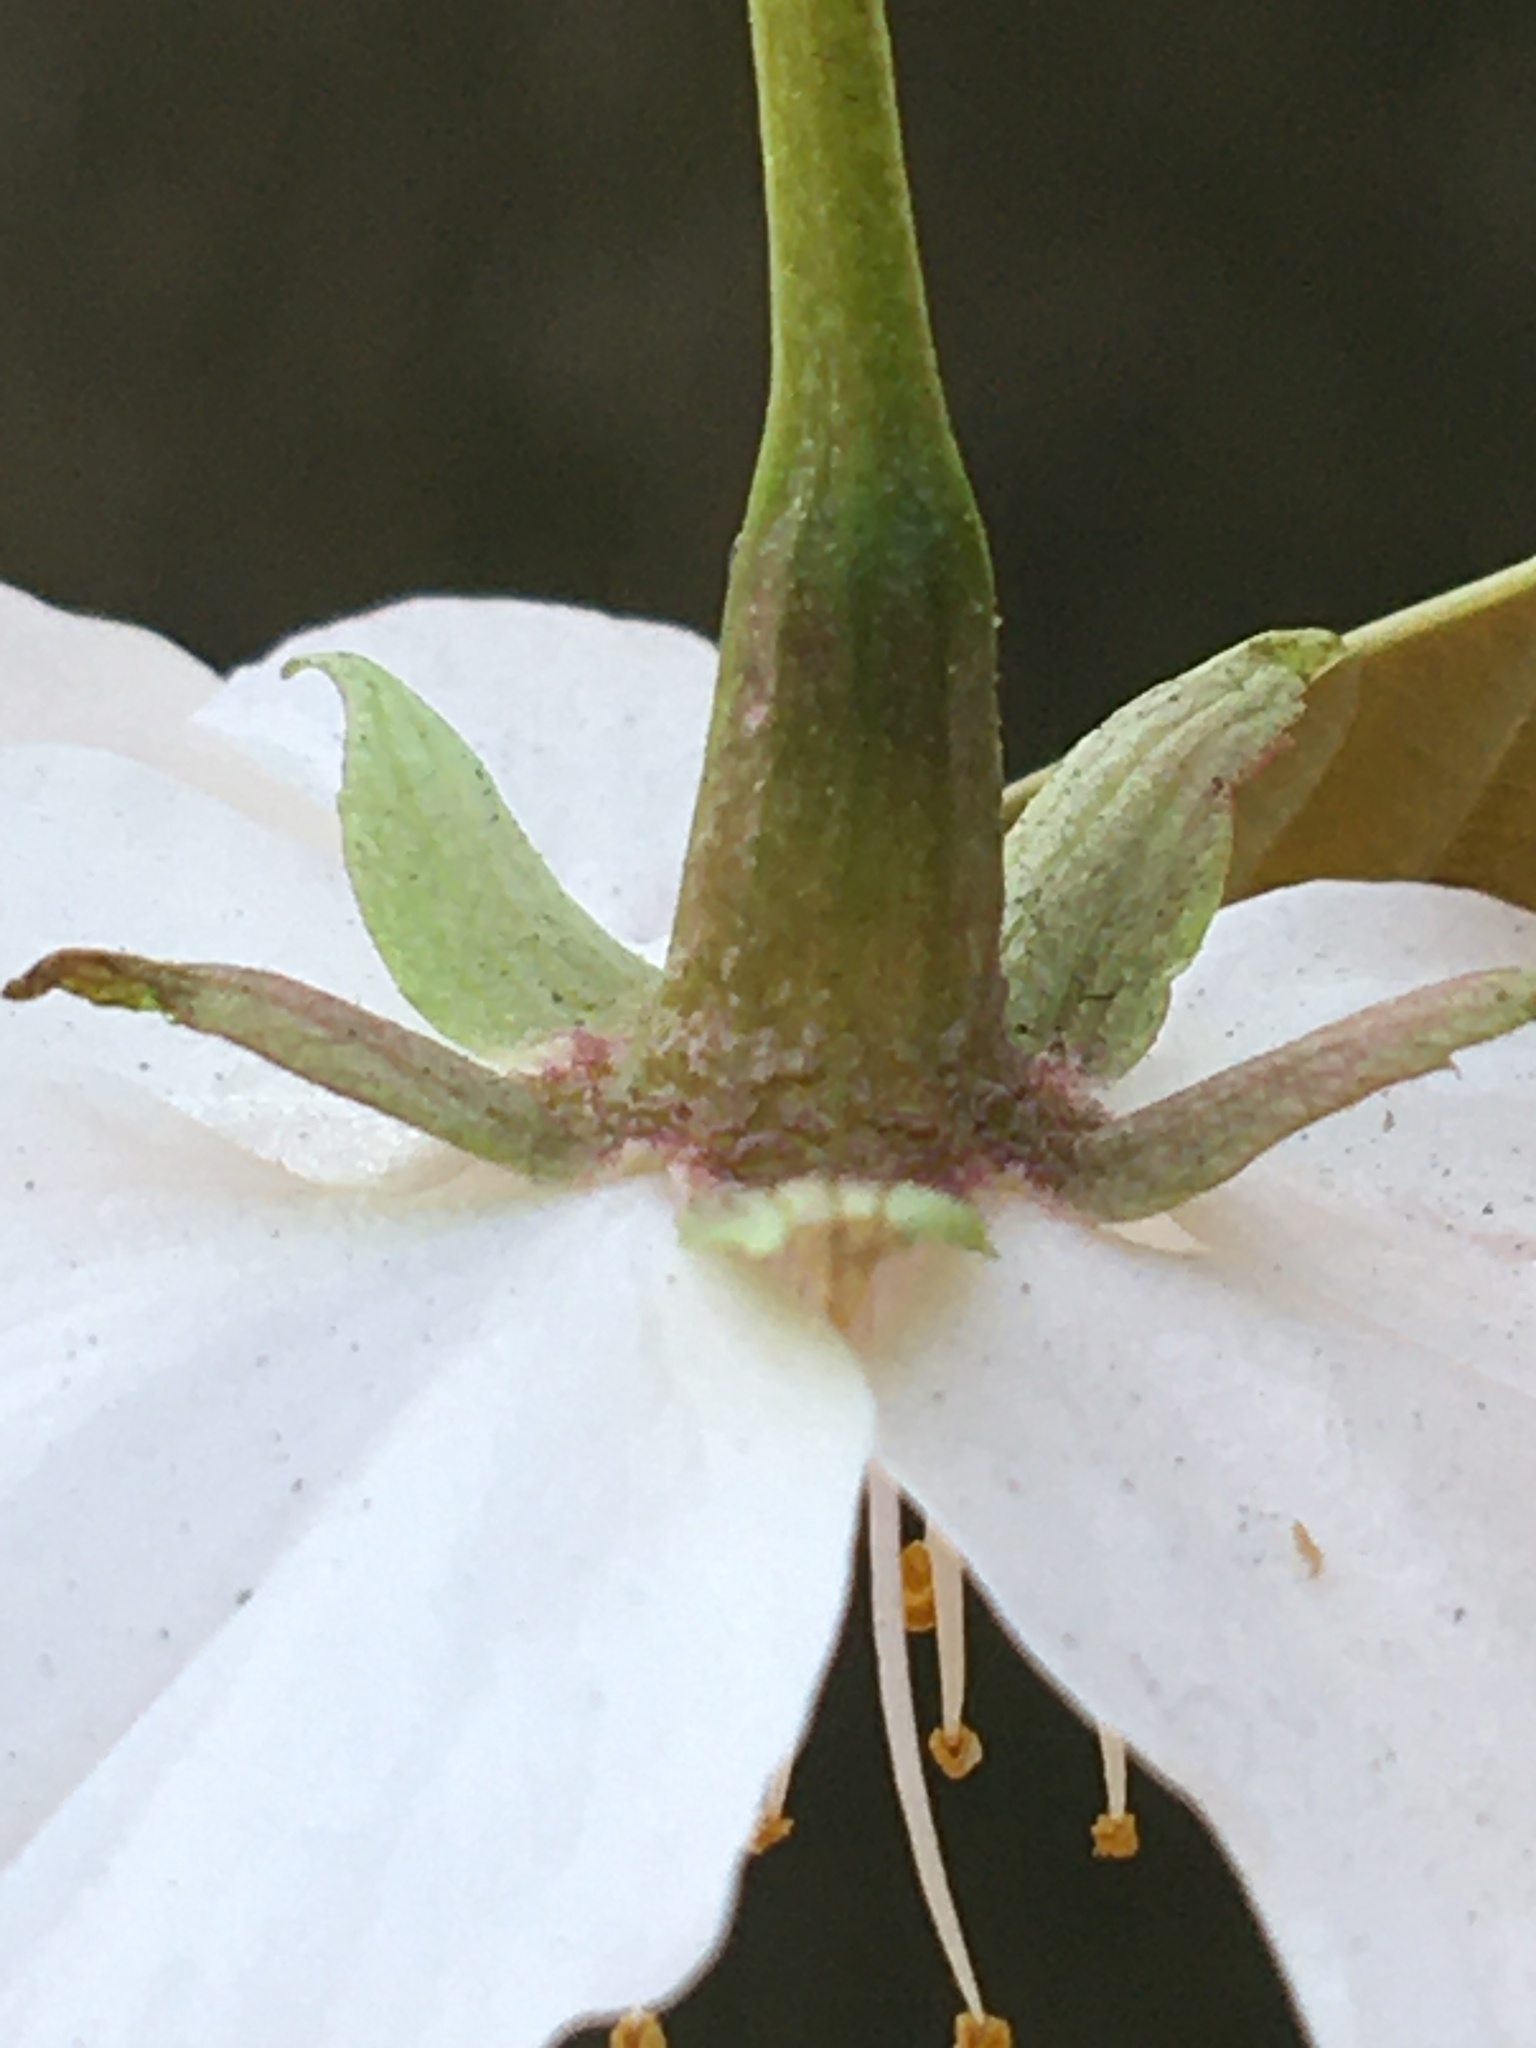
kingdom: Plantae
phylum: Tracheophyta
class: Magnoliopsida
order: Rosales
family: Rosaceae
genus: Prunus
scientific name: Prunus speciosa
